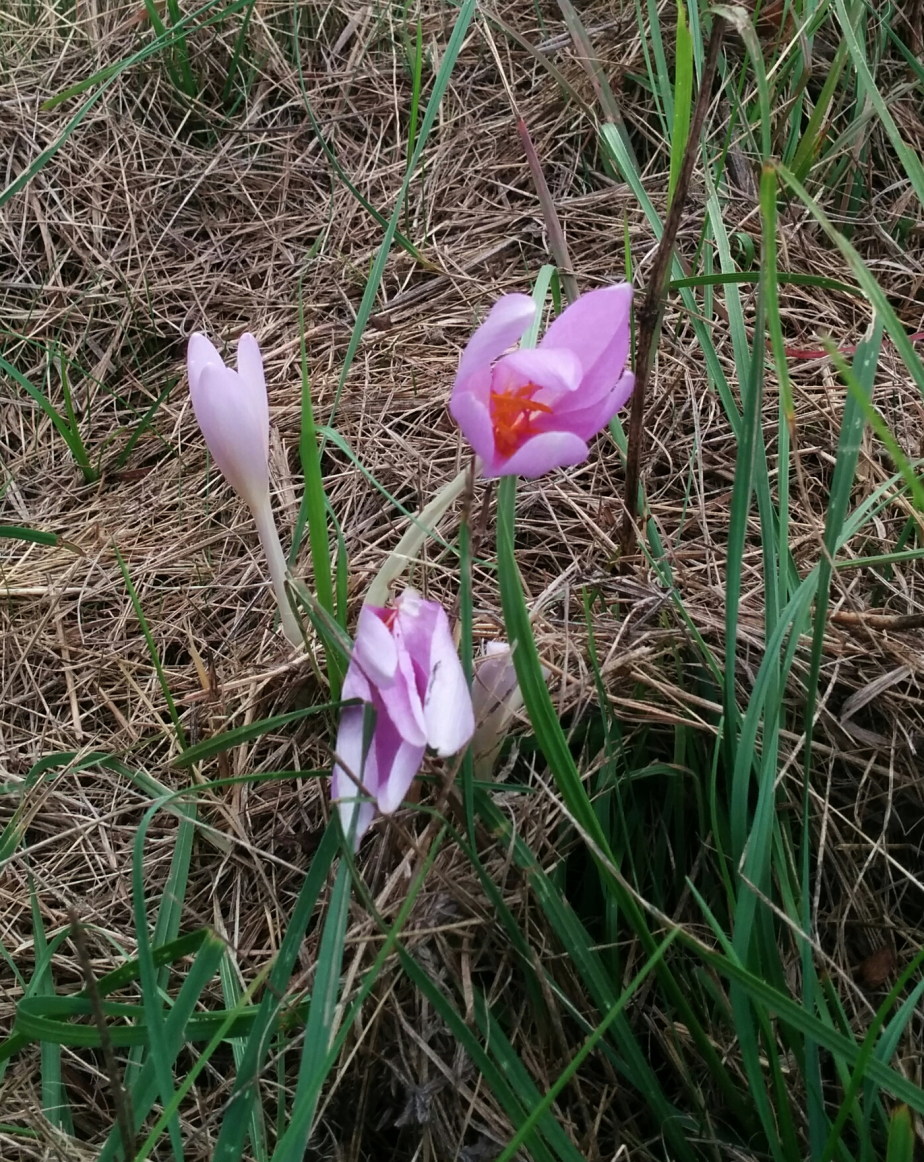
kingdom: Plantae
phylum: Tracheophyta
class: Liliopsida
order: Liliales
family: Colchicaceae
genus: Colchicum
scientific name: Colchicum autumnale
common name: Autumn crocus
